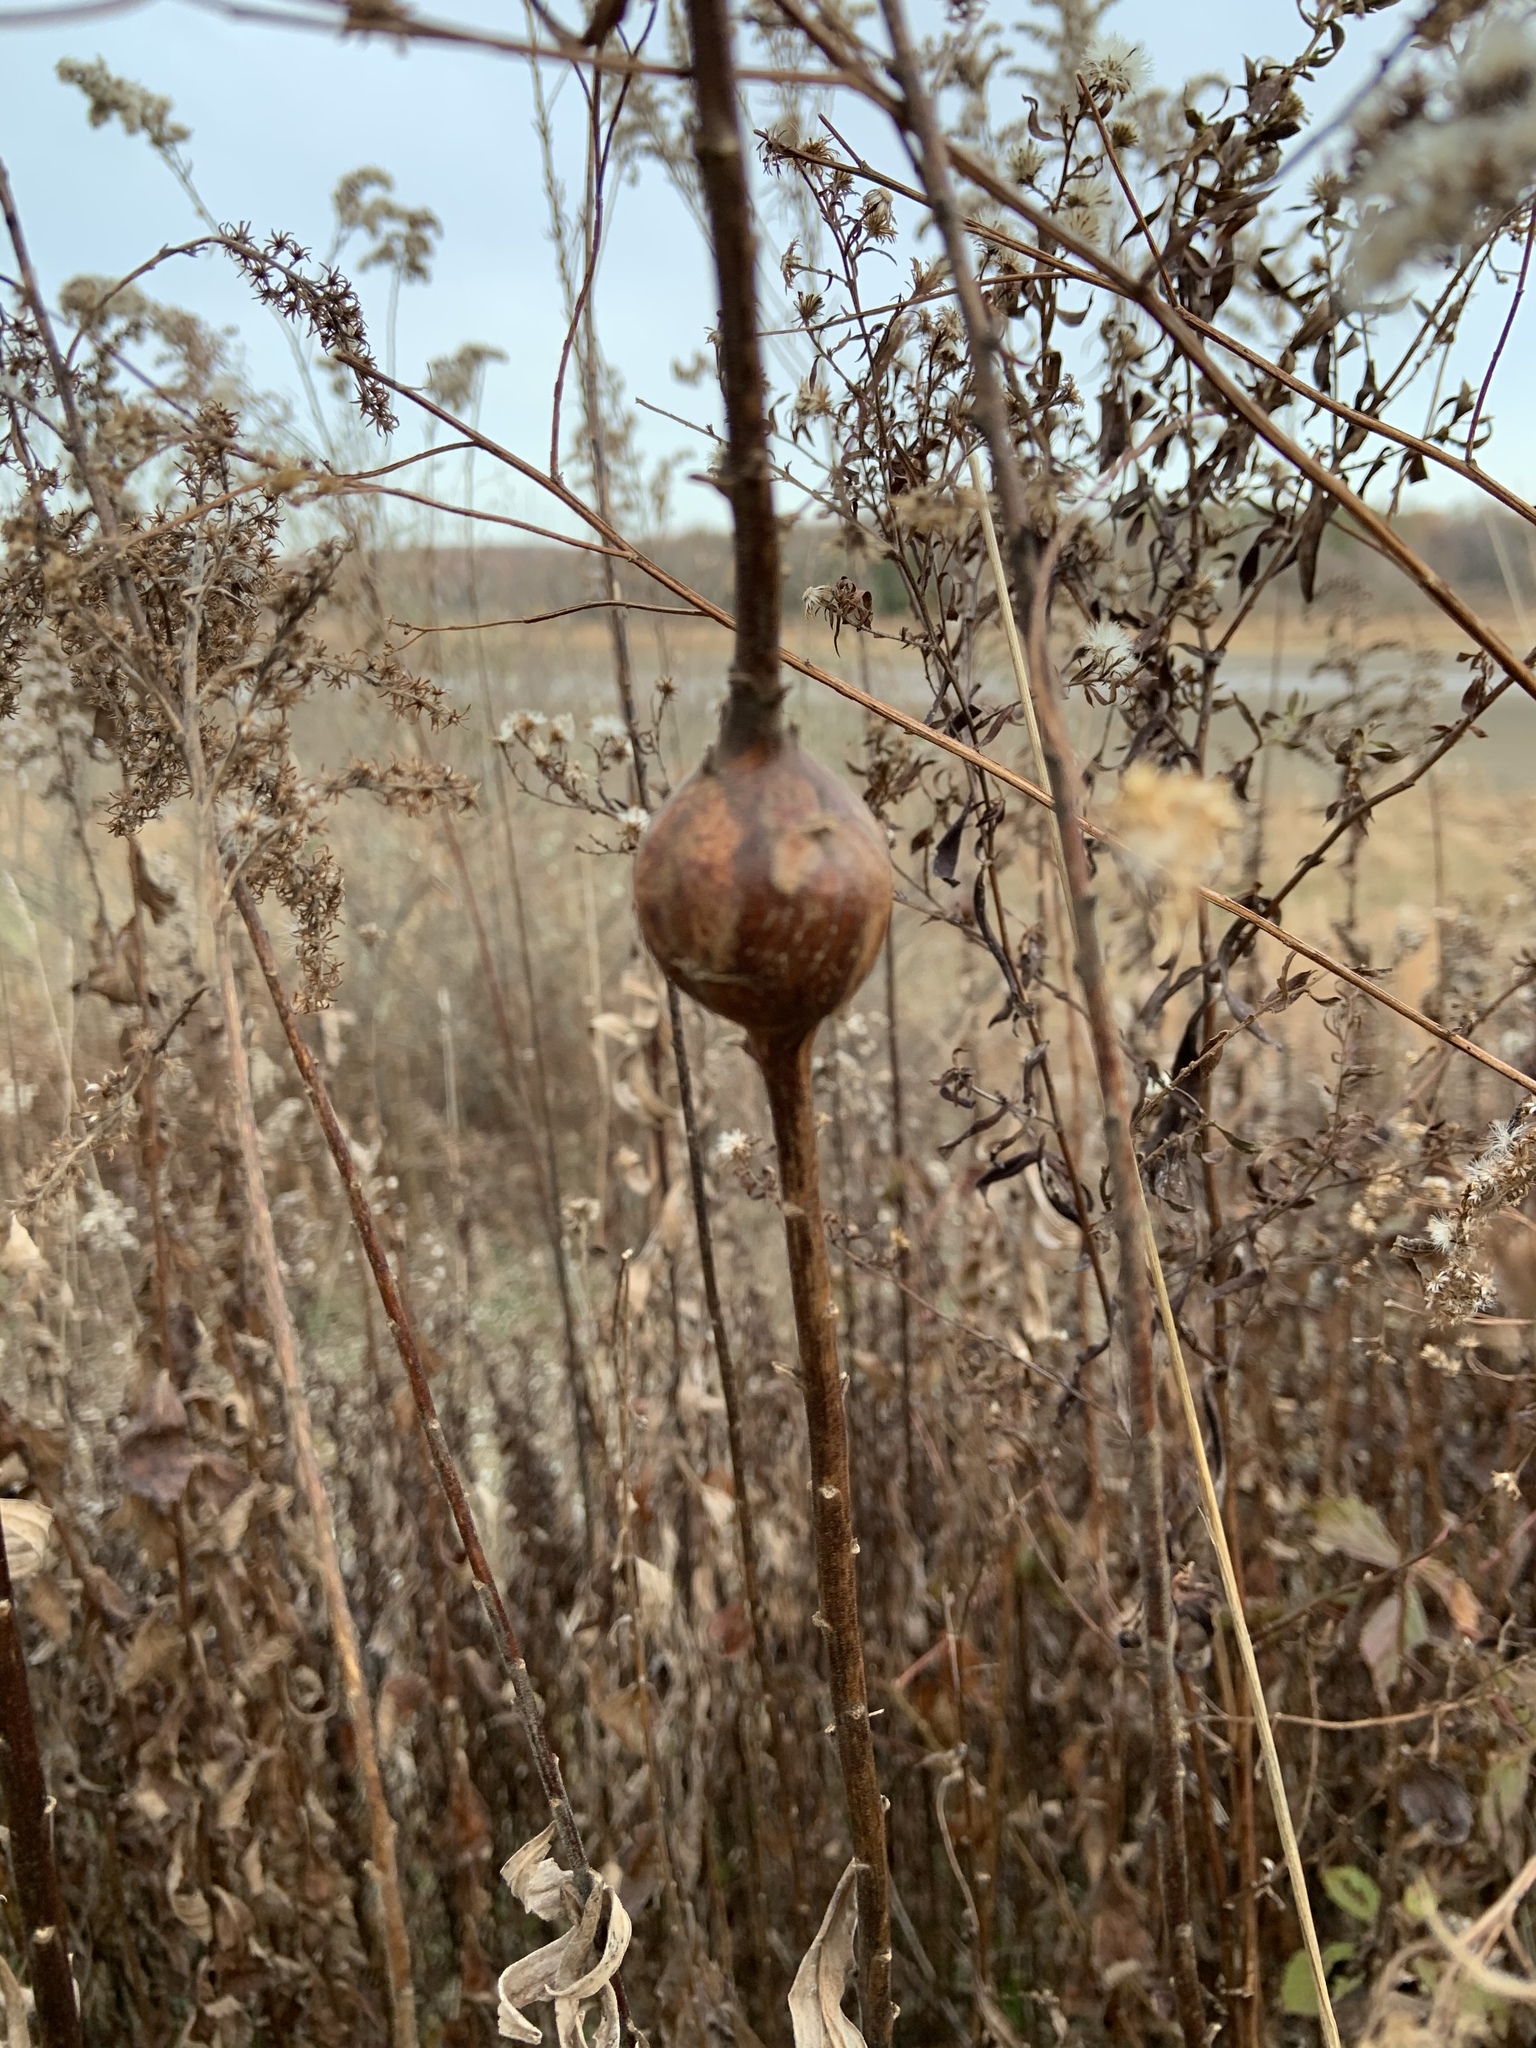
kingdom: Animalia
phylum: Arthropoda
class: Insecta
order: Diptera
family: Tephritidae
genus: Eurosta
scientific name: Eurosta solidaginis
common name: Goldenrod gall fly
